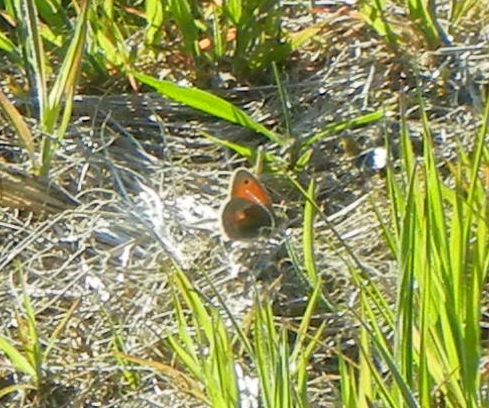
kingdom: Animalia
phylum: Arthropoda
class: Insecta
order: Lepidoptera
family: Nymphalidae
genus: Coenonympha
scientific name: Coenonympha pamphilus
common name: Small heath
